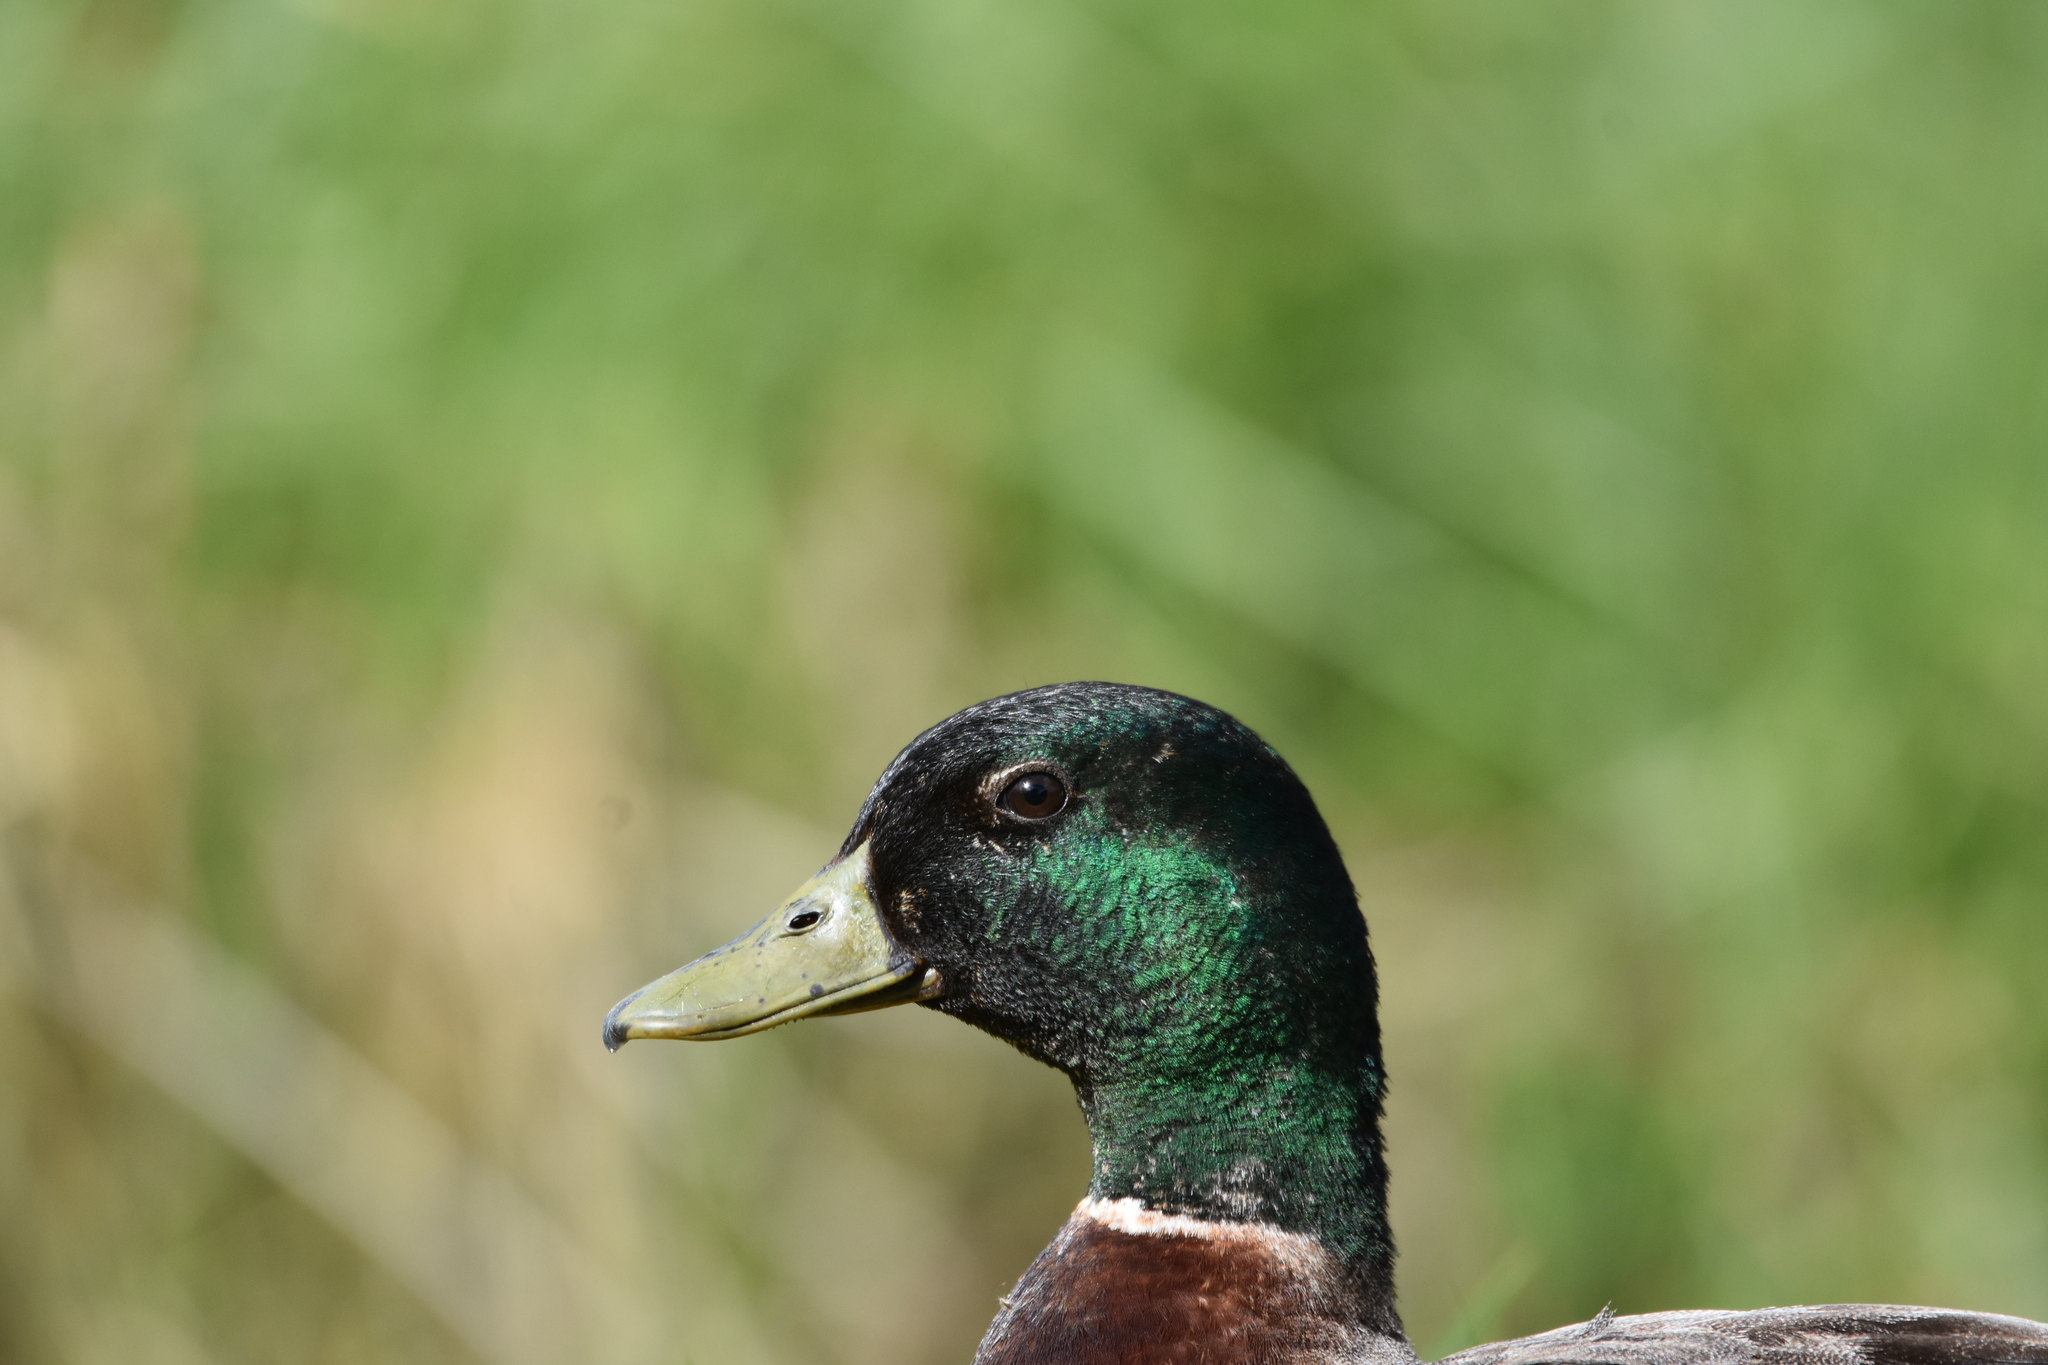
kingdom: Animalia
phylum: Chordata
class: Aves
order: Anseriformes
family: Anatidae
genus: Anas
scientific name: Anas platyrhynchos
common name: Mallard
